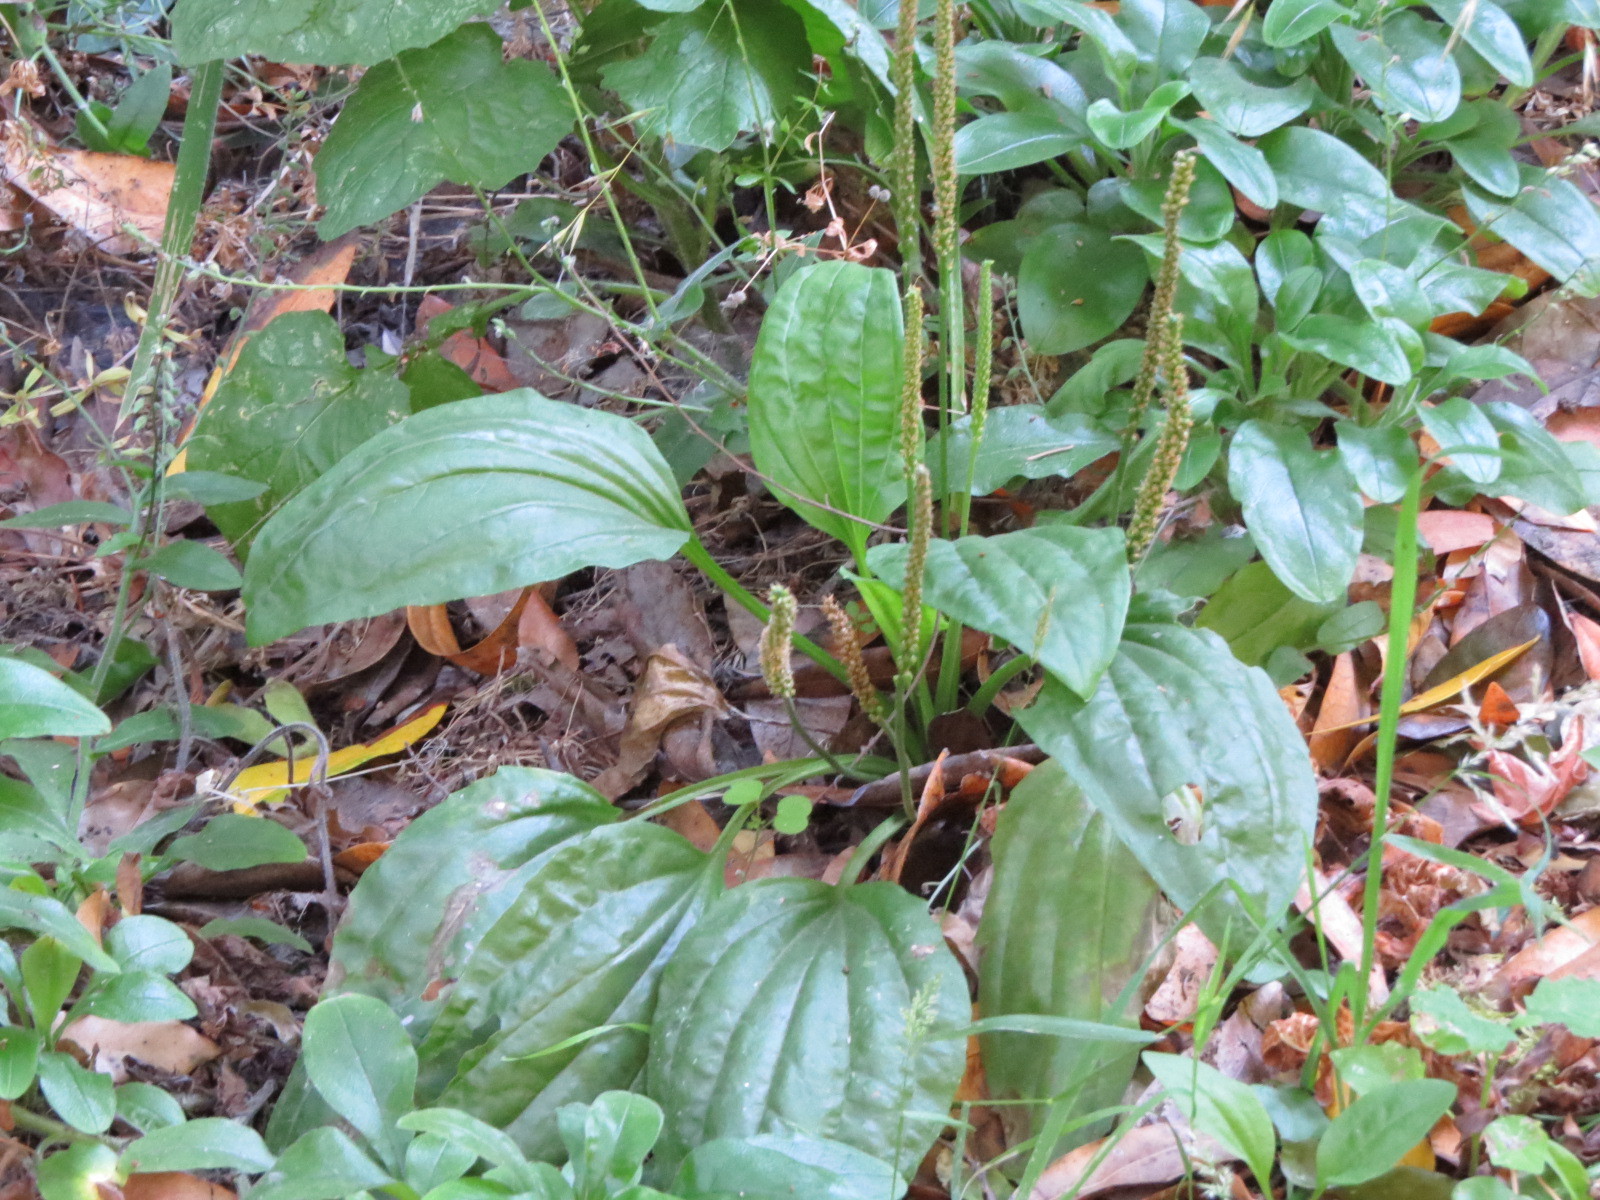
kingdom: Plantae
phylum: Tracheophyta
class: Magnoliopsida
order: Lamiales
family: Plantaginaceae
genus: Plantago
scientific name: Plantago major
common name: Common plantain
